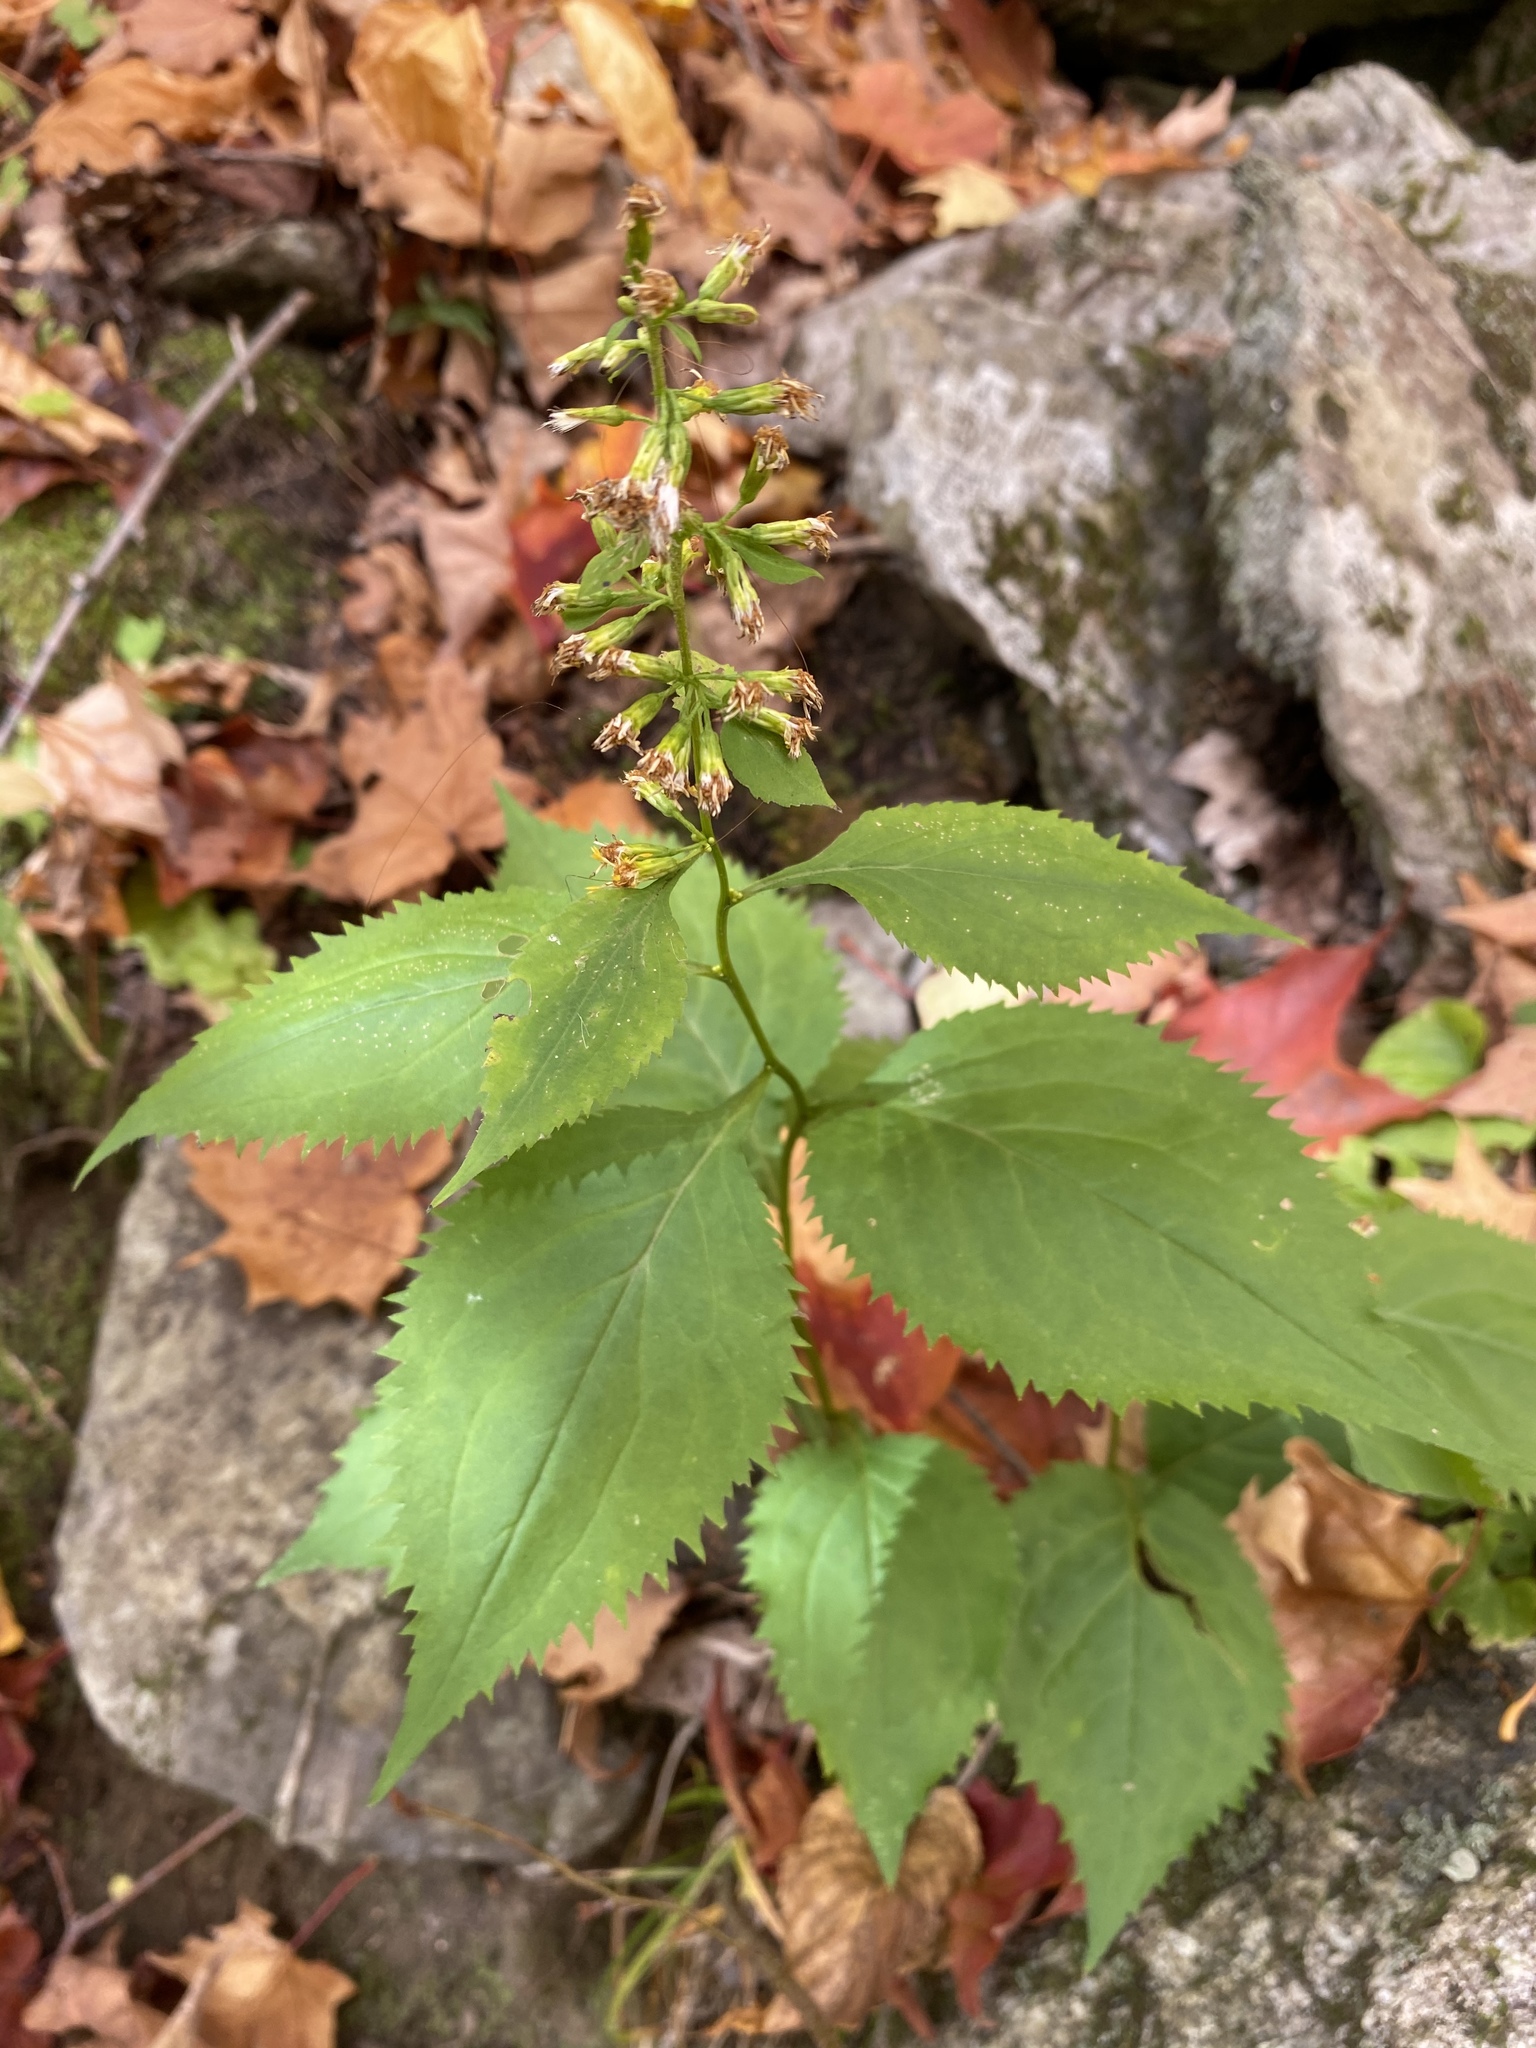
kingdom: Plantae
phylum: Tracheophyta
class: Magnoliopsida
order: Asterales
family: Asteraceae
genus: Solidago
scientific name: Solidago flexicaulis
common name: Zig-zag goldenrod
